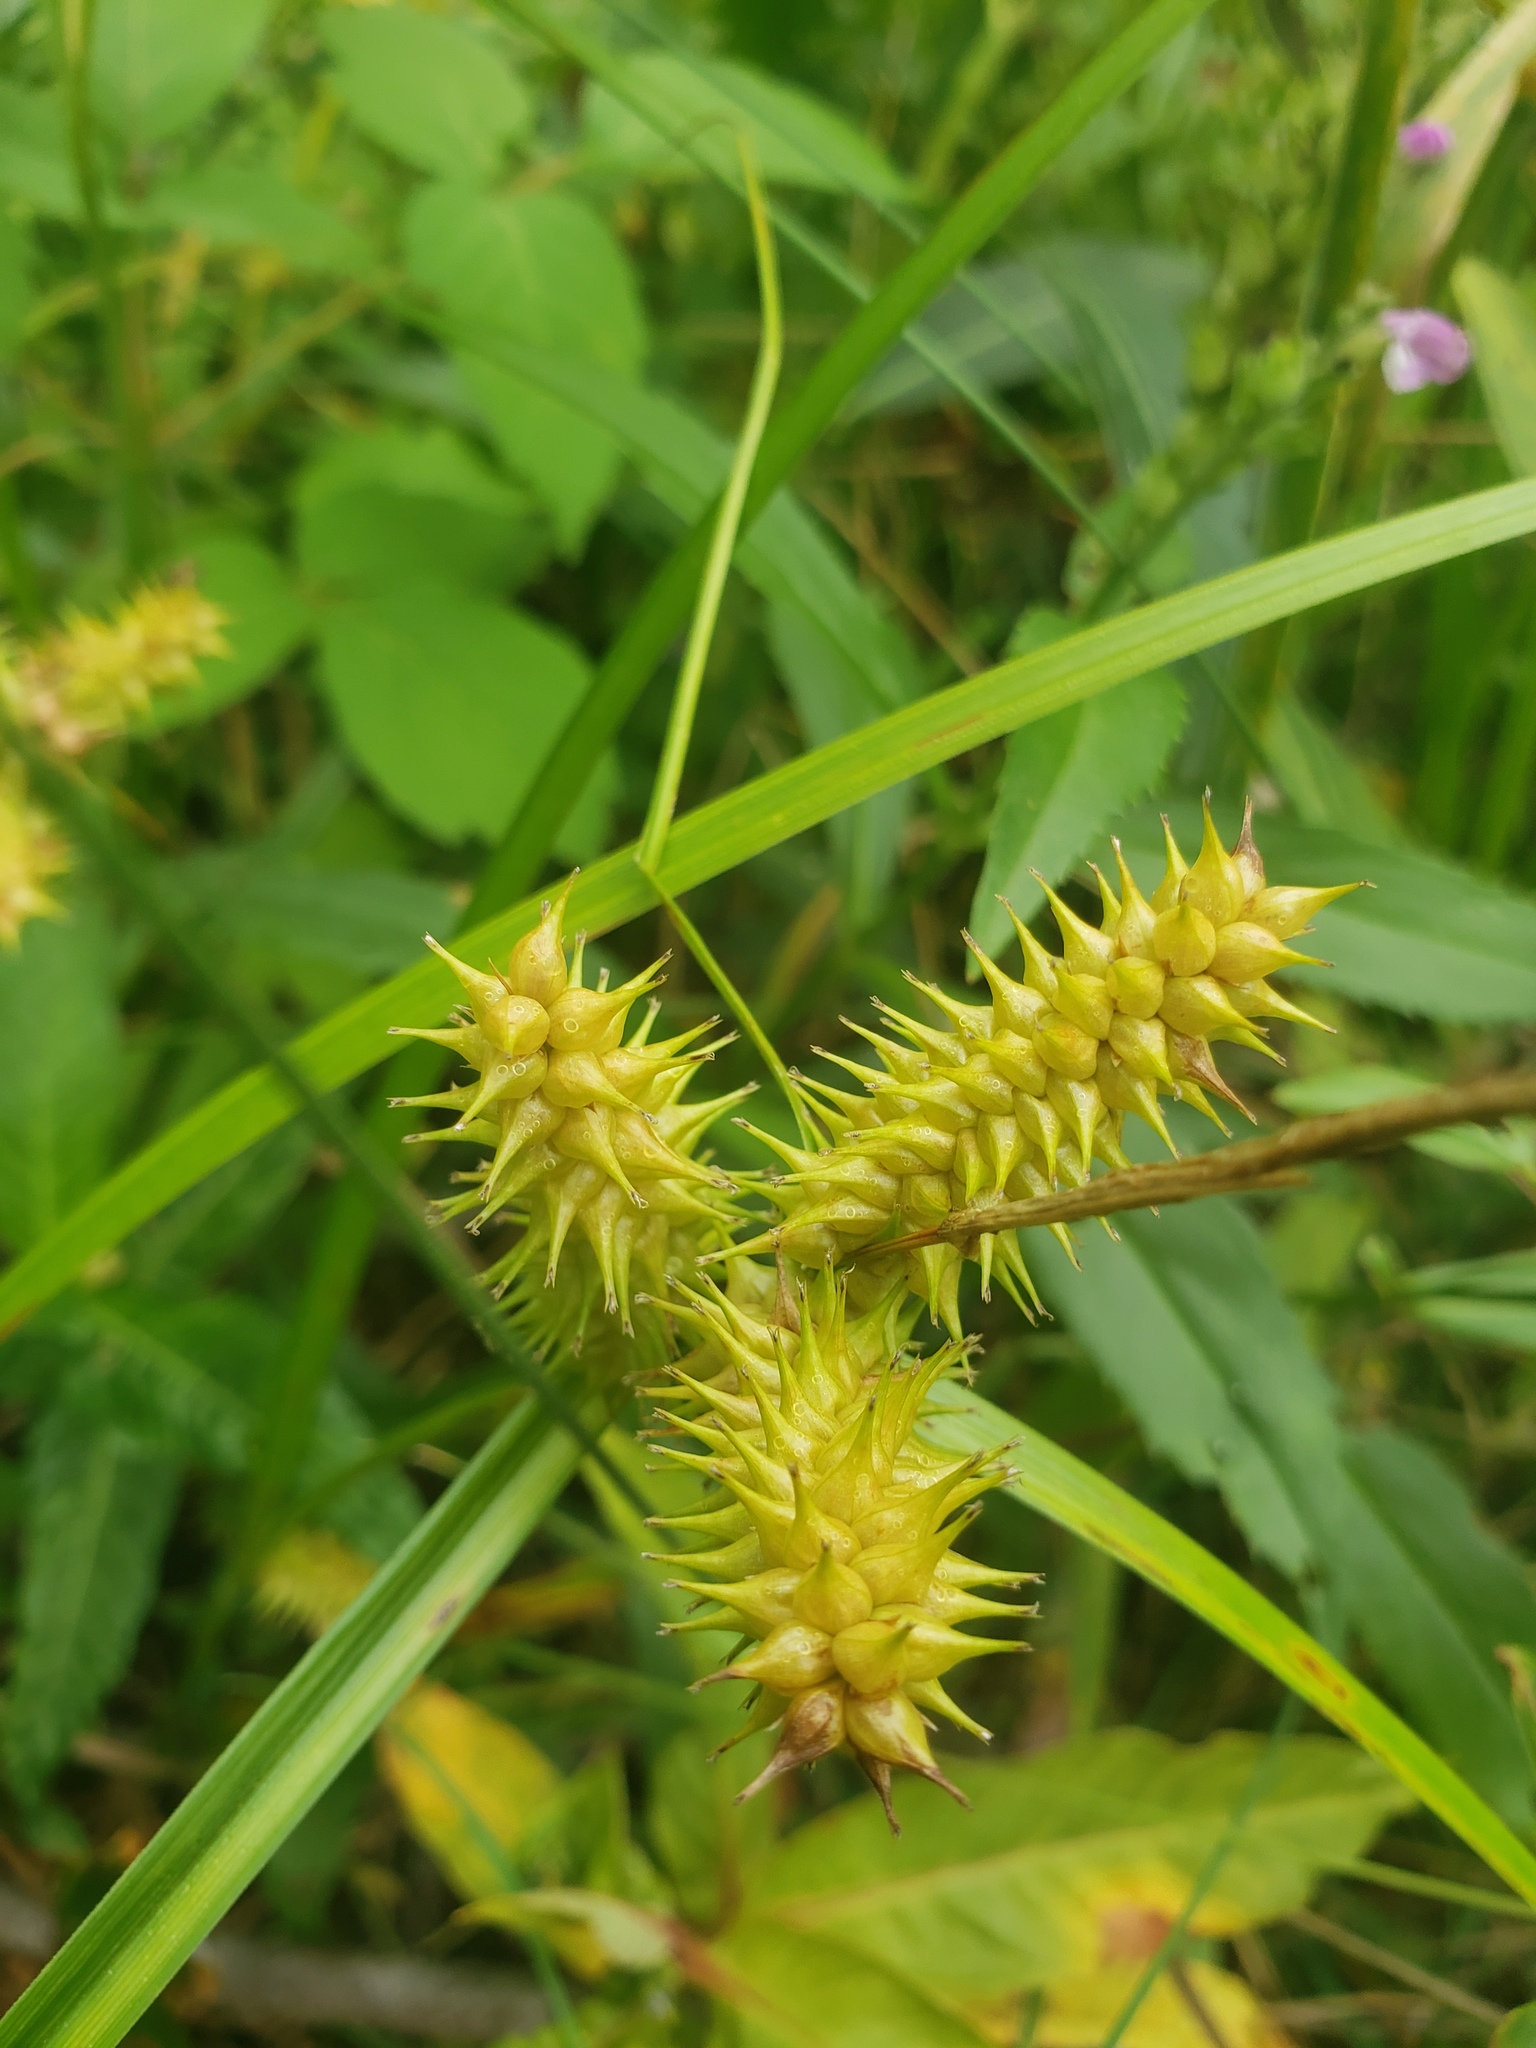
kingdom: Plantae
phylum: Tracheophyta
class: Liliopsida
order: Poales
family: Cyperaceae
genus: Carex
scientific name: Carex retrorsa
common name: Knot-sheath sedge
